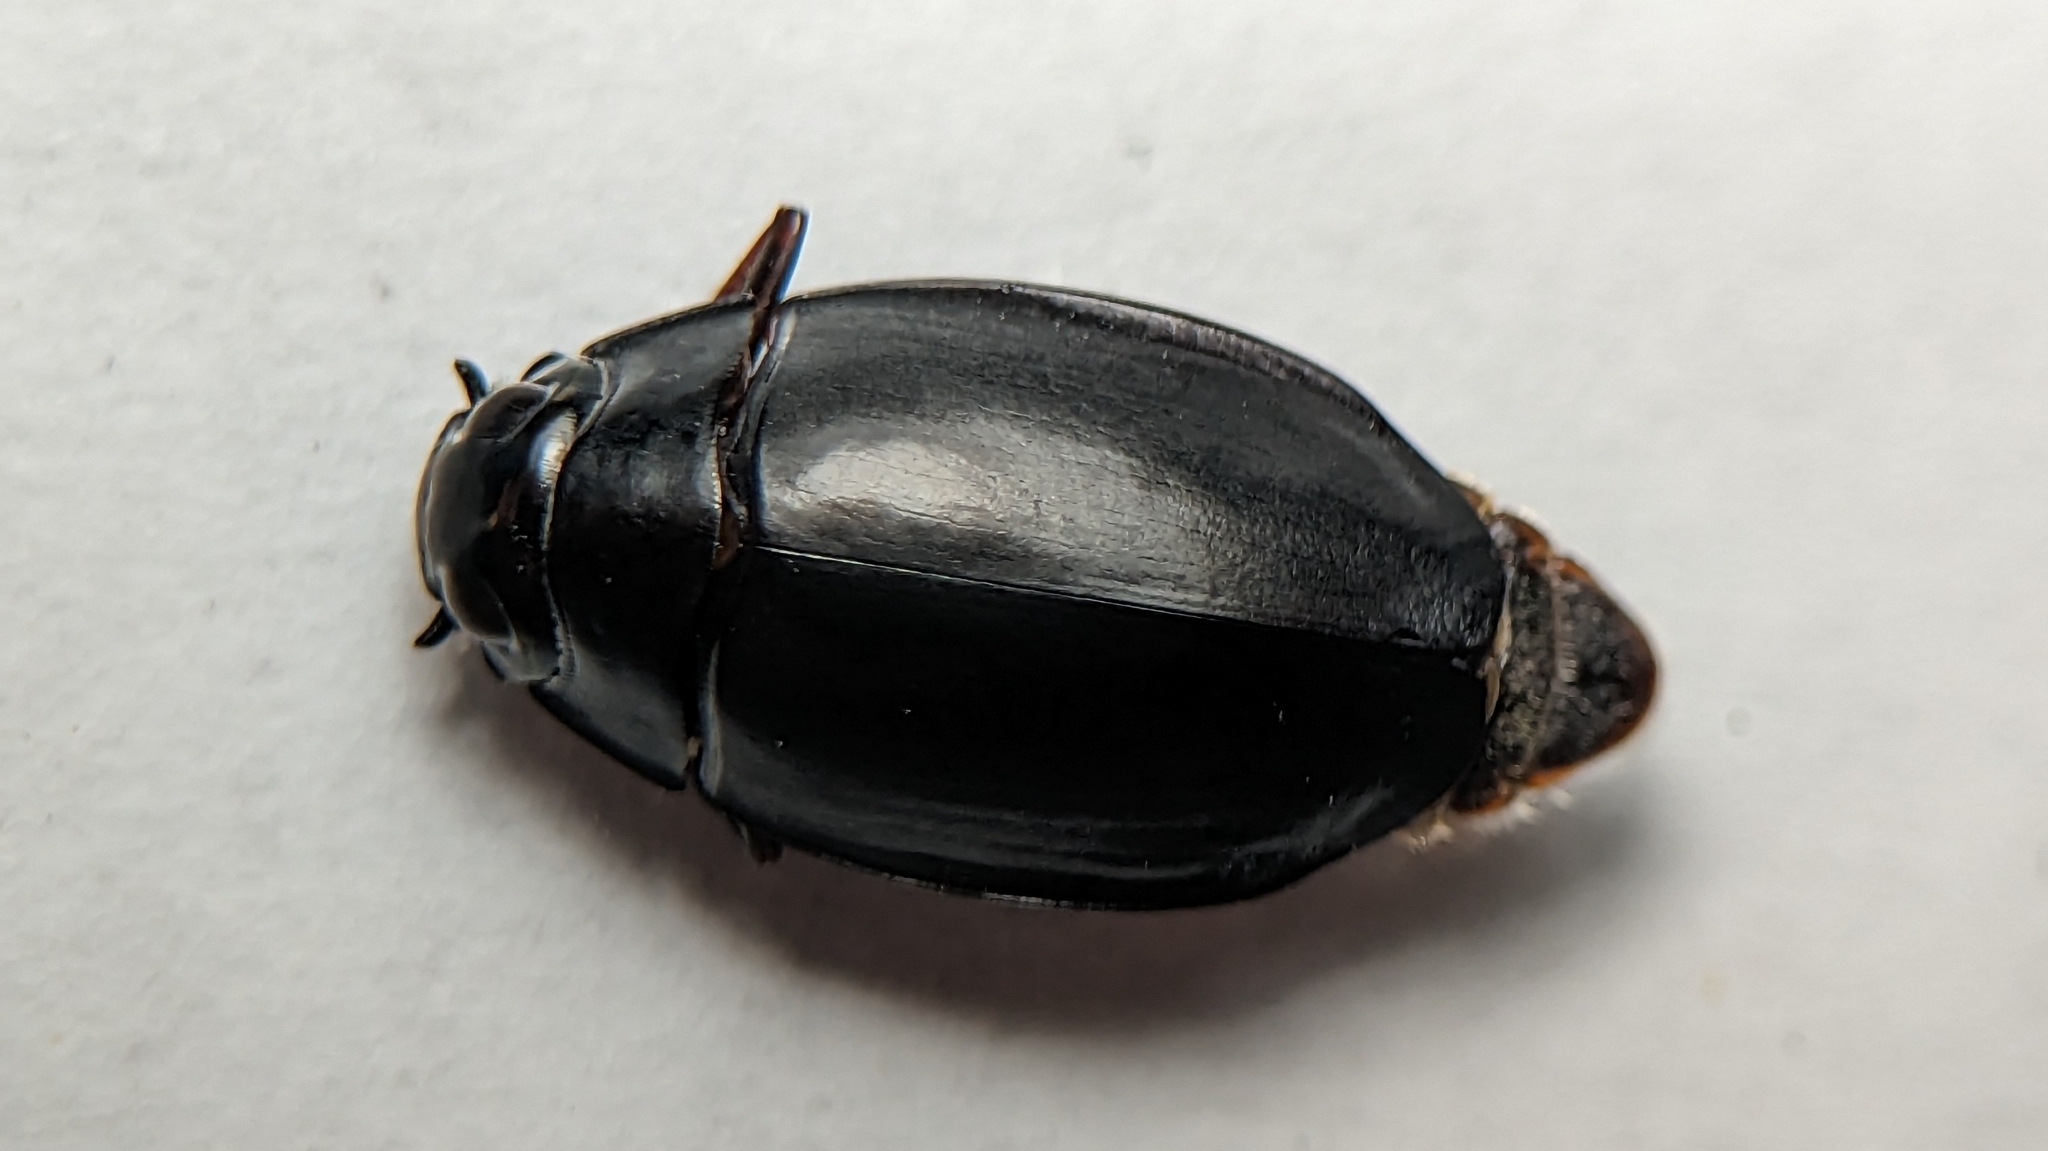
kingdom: Animalia
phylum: Arthropoda
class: Insecta
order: Coleoptera
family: Gyrinidae
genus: Dineutus
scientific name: Dineutus
